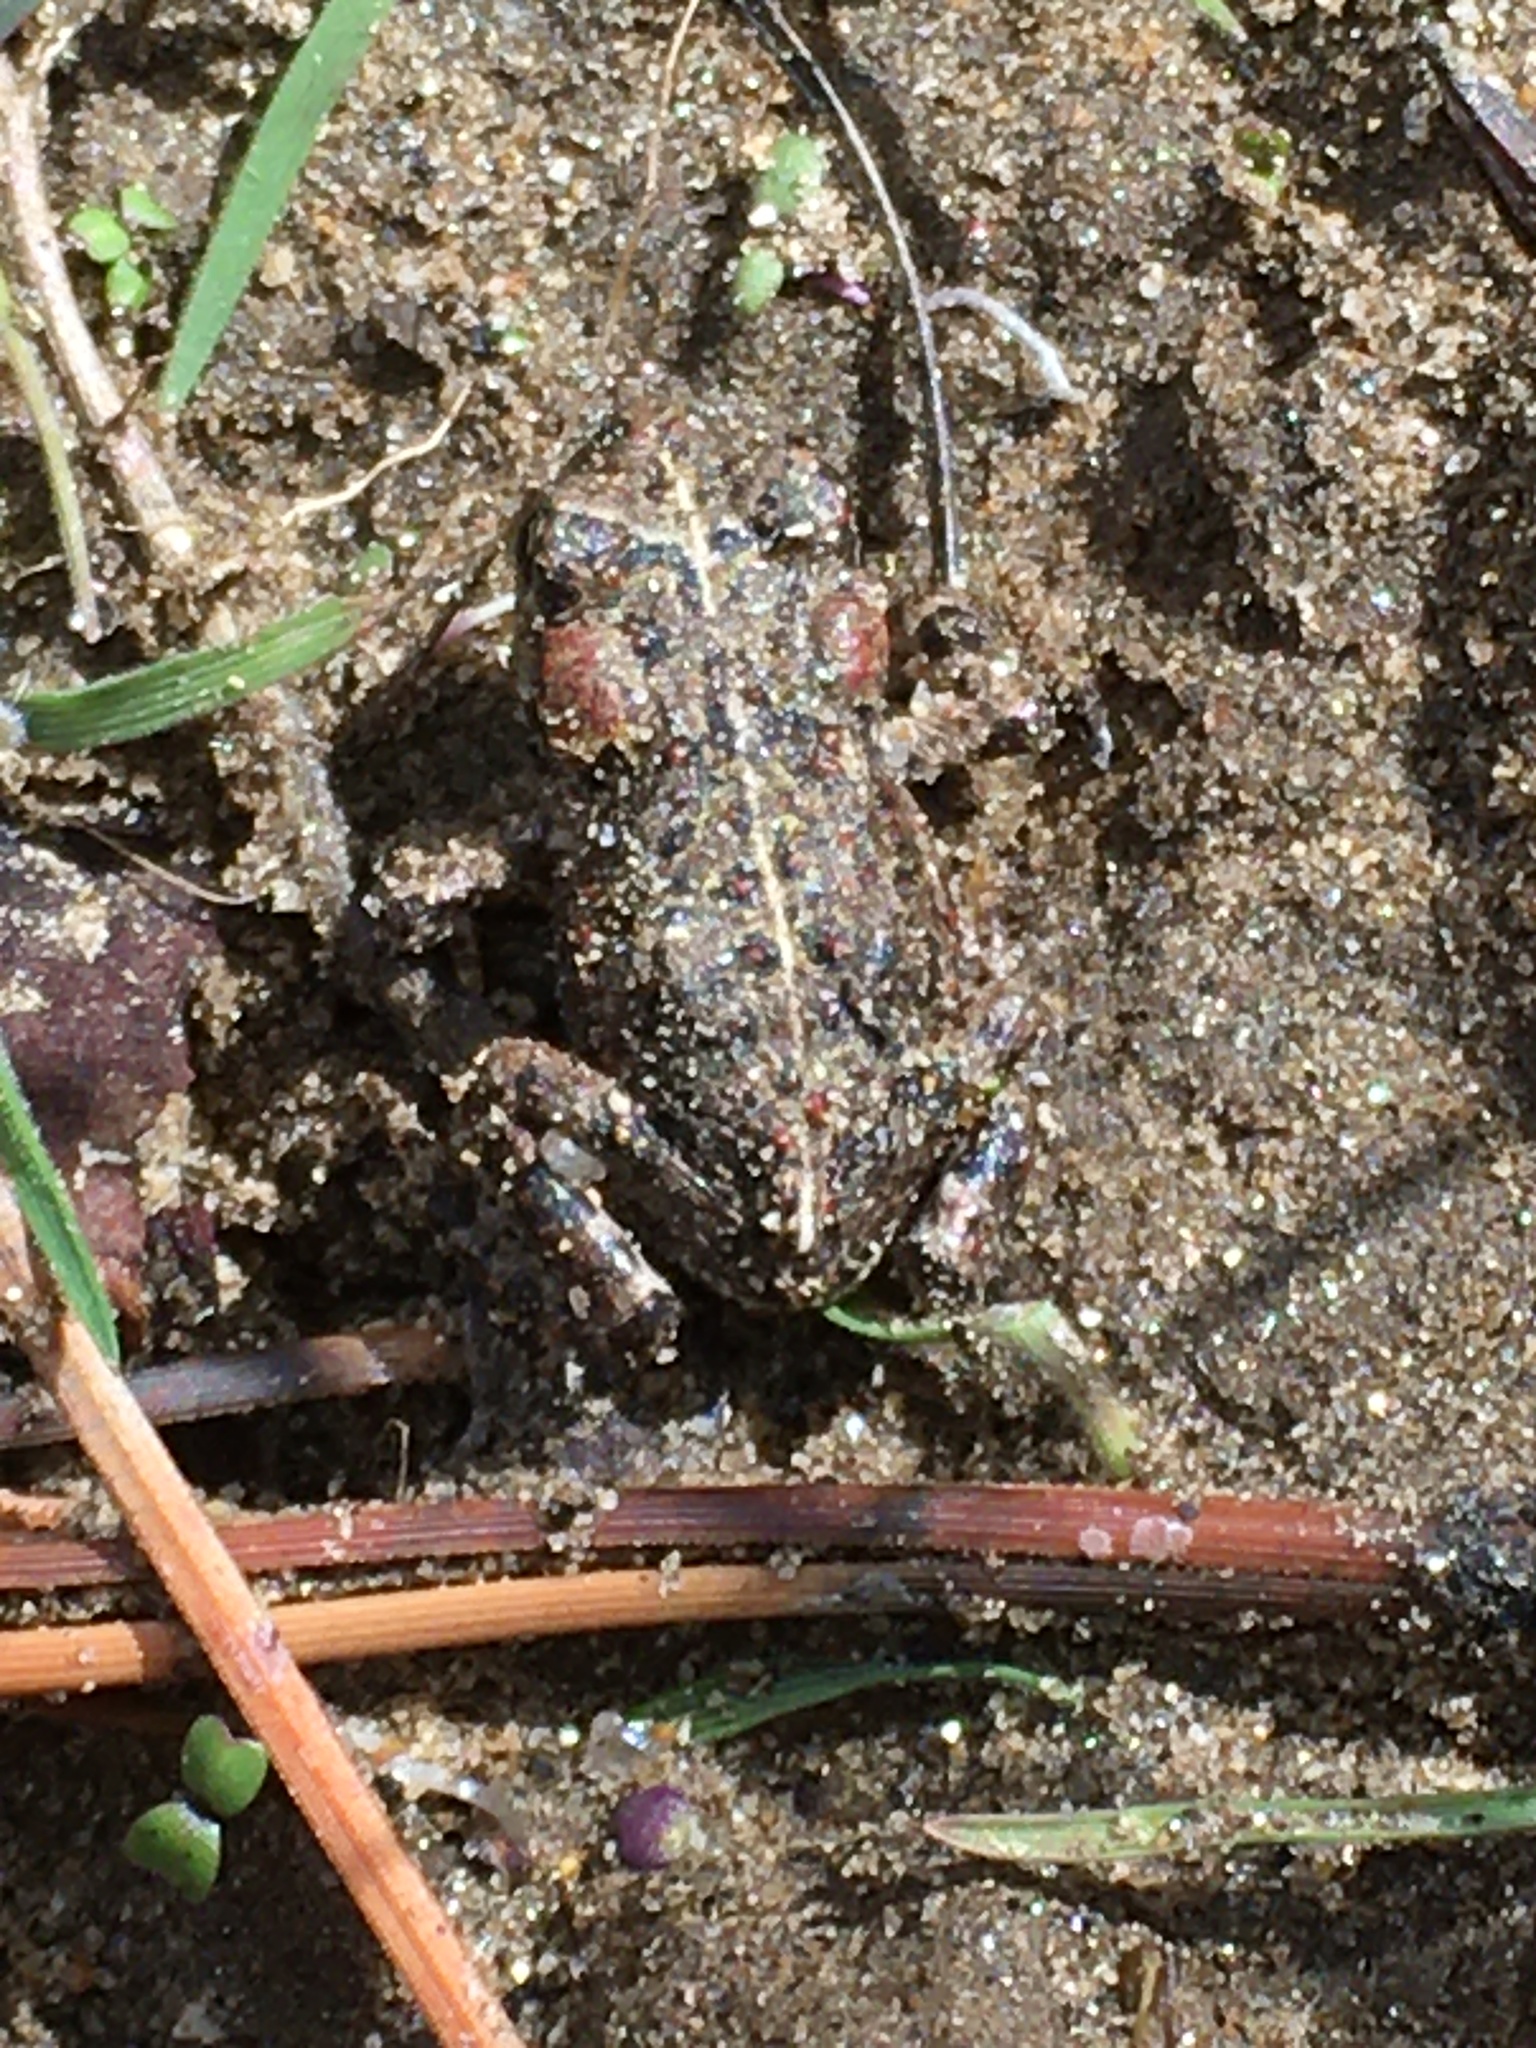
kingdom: Animalia
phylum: Chordata
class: Amphibia
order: Anura
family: Bufonidae
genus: Anaxyrus
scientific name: Anaxyrus boreas
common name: Western toad
